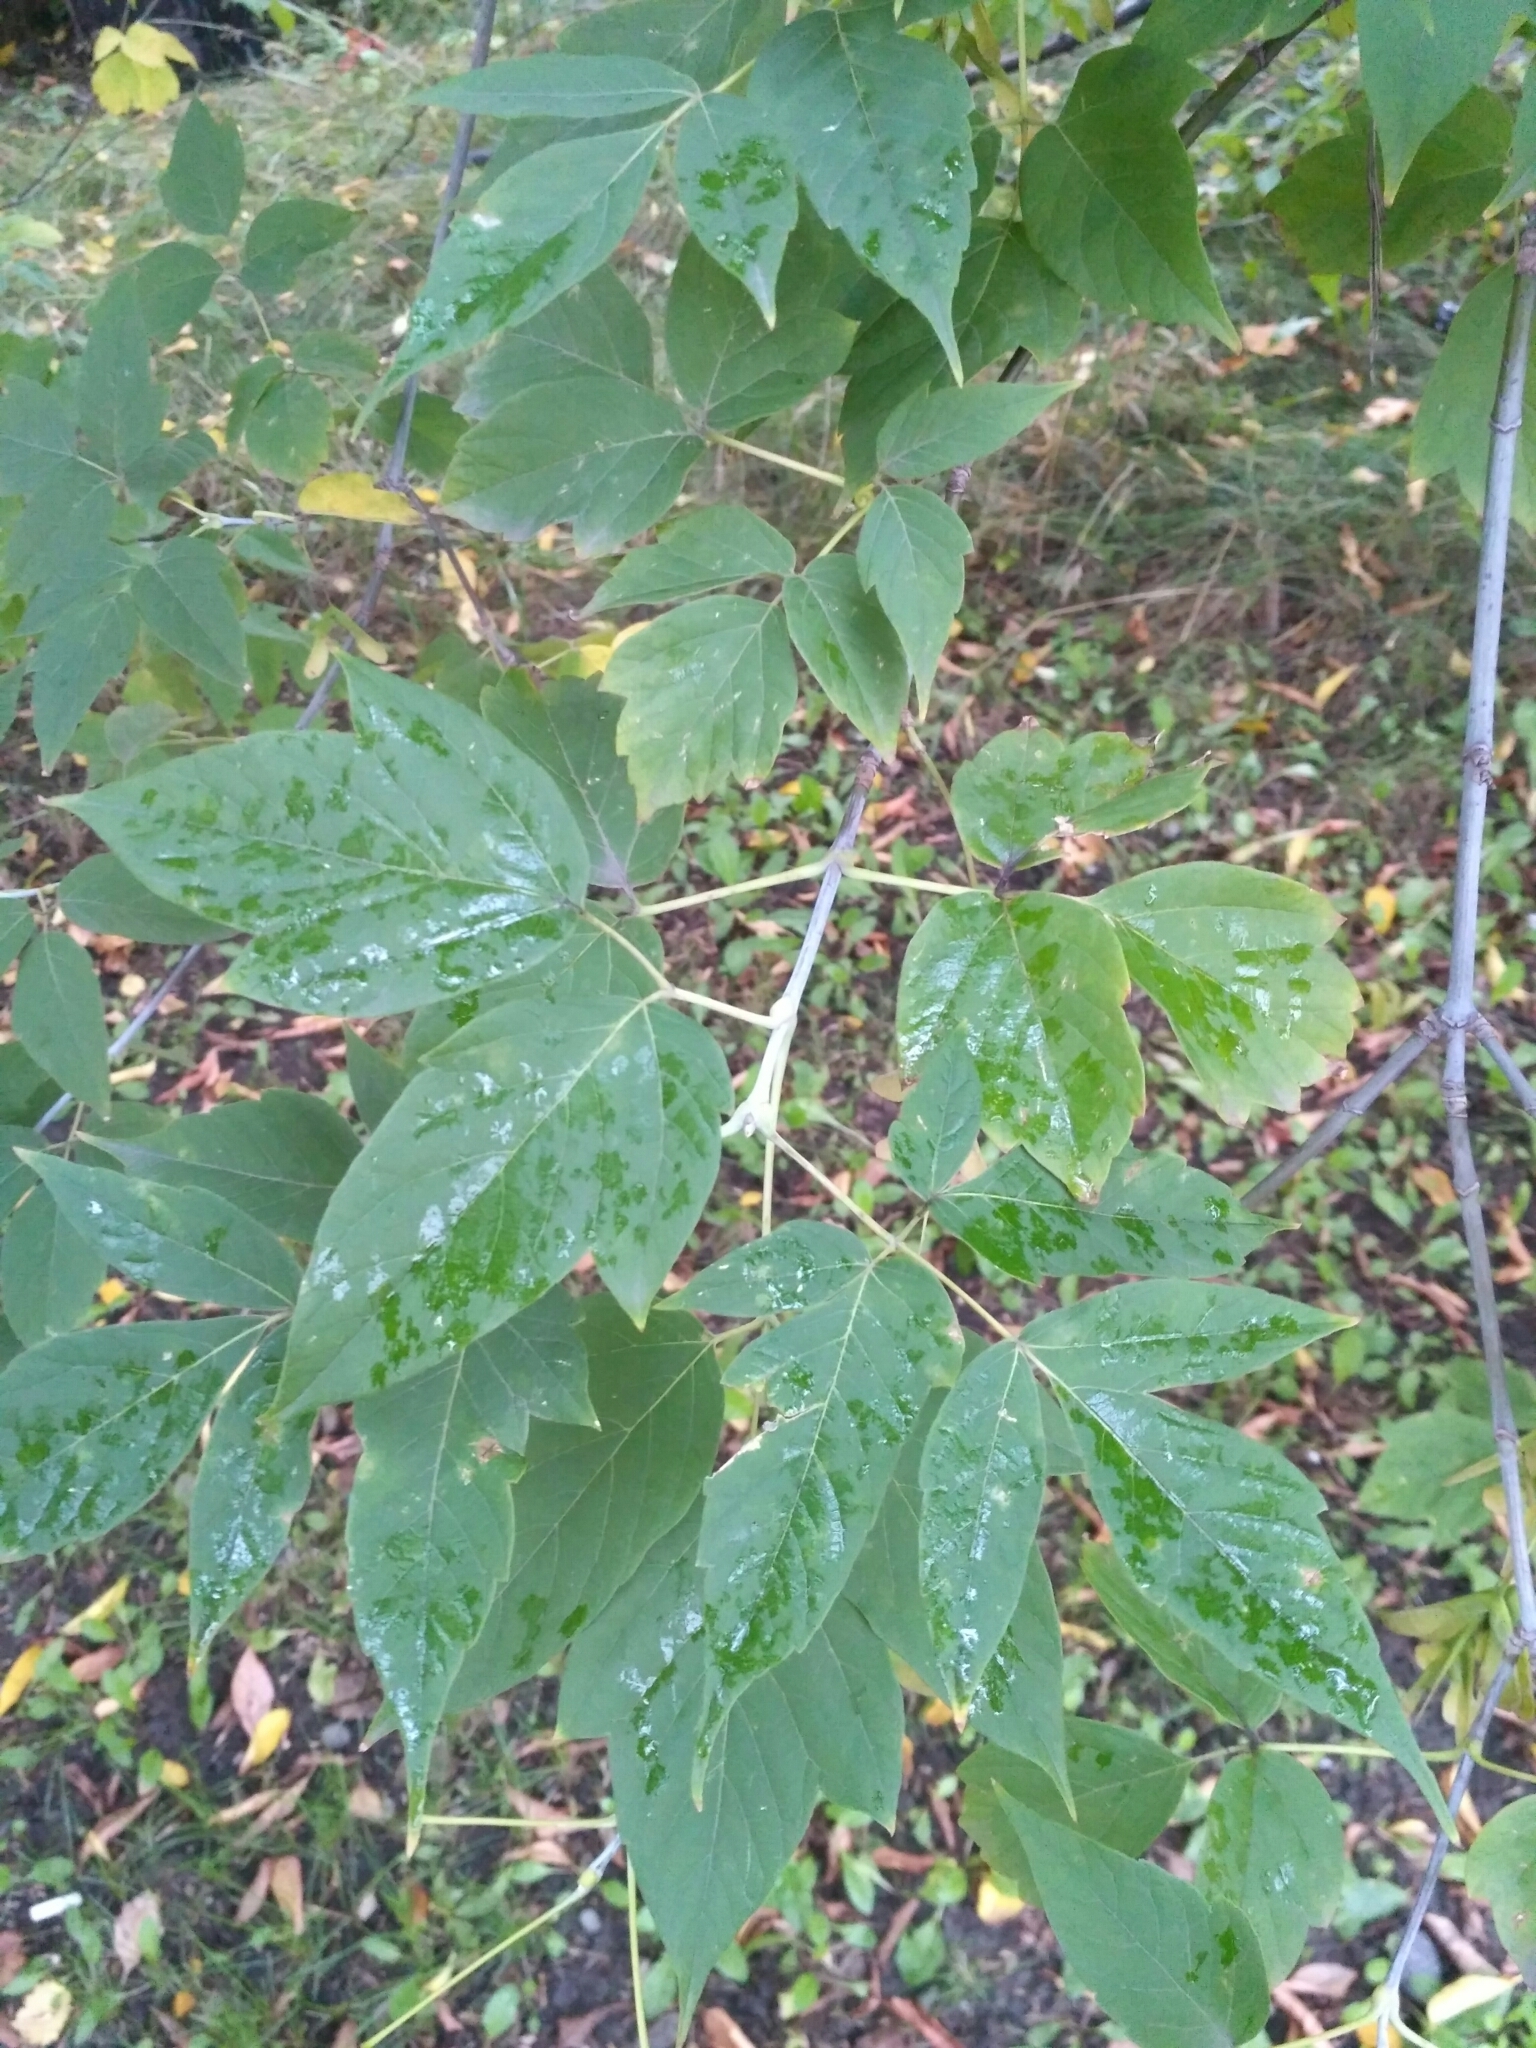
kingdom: Plantae
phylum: Tracheophyta
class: Magnoliopsida
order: Sapindales
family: Sapindaceae
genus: Acer
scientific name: Acer negundo
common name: Ashleaf maple
